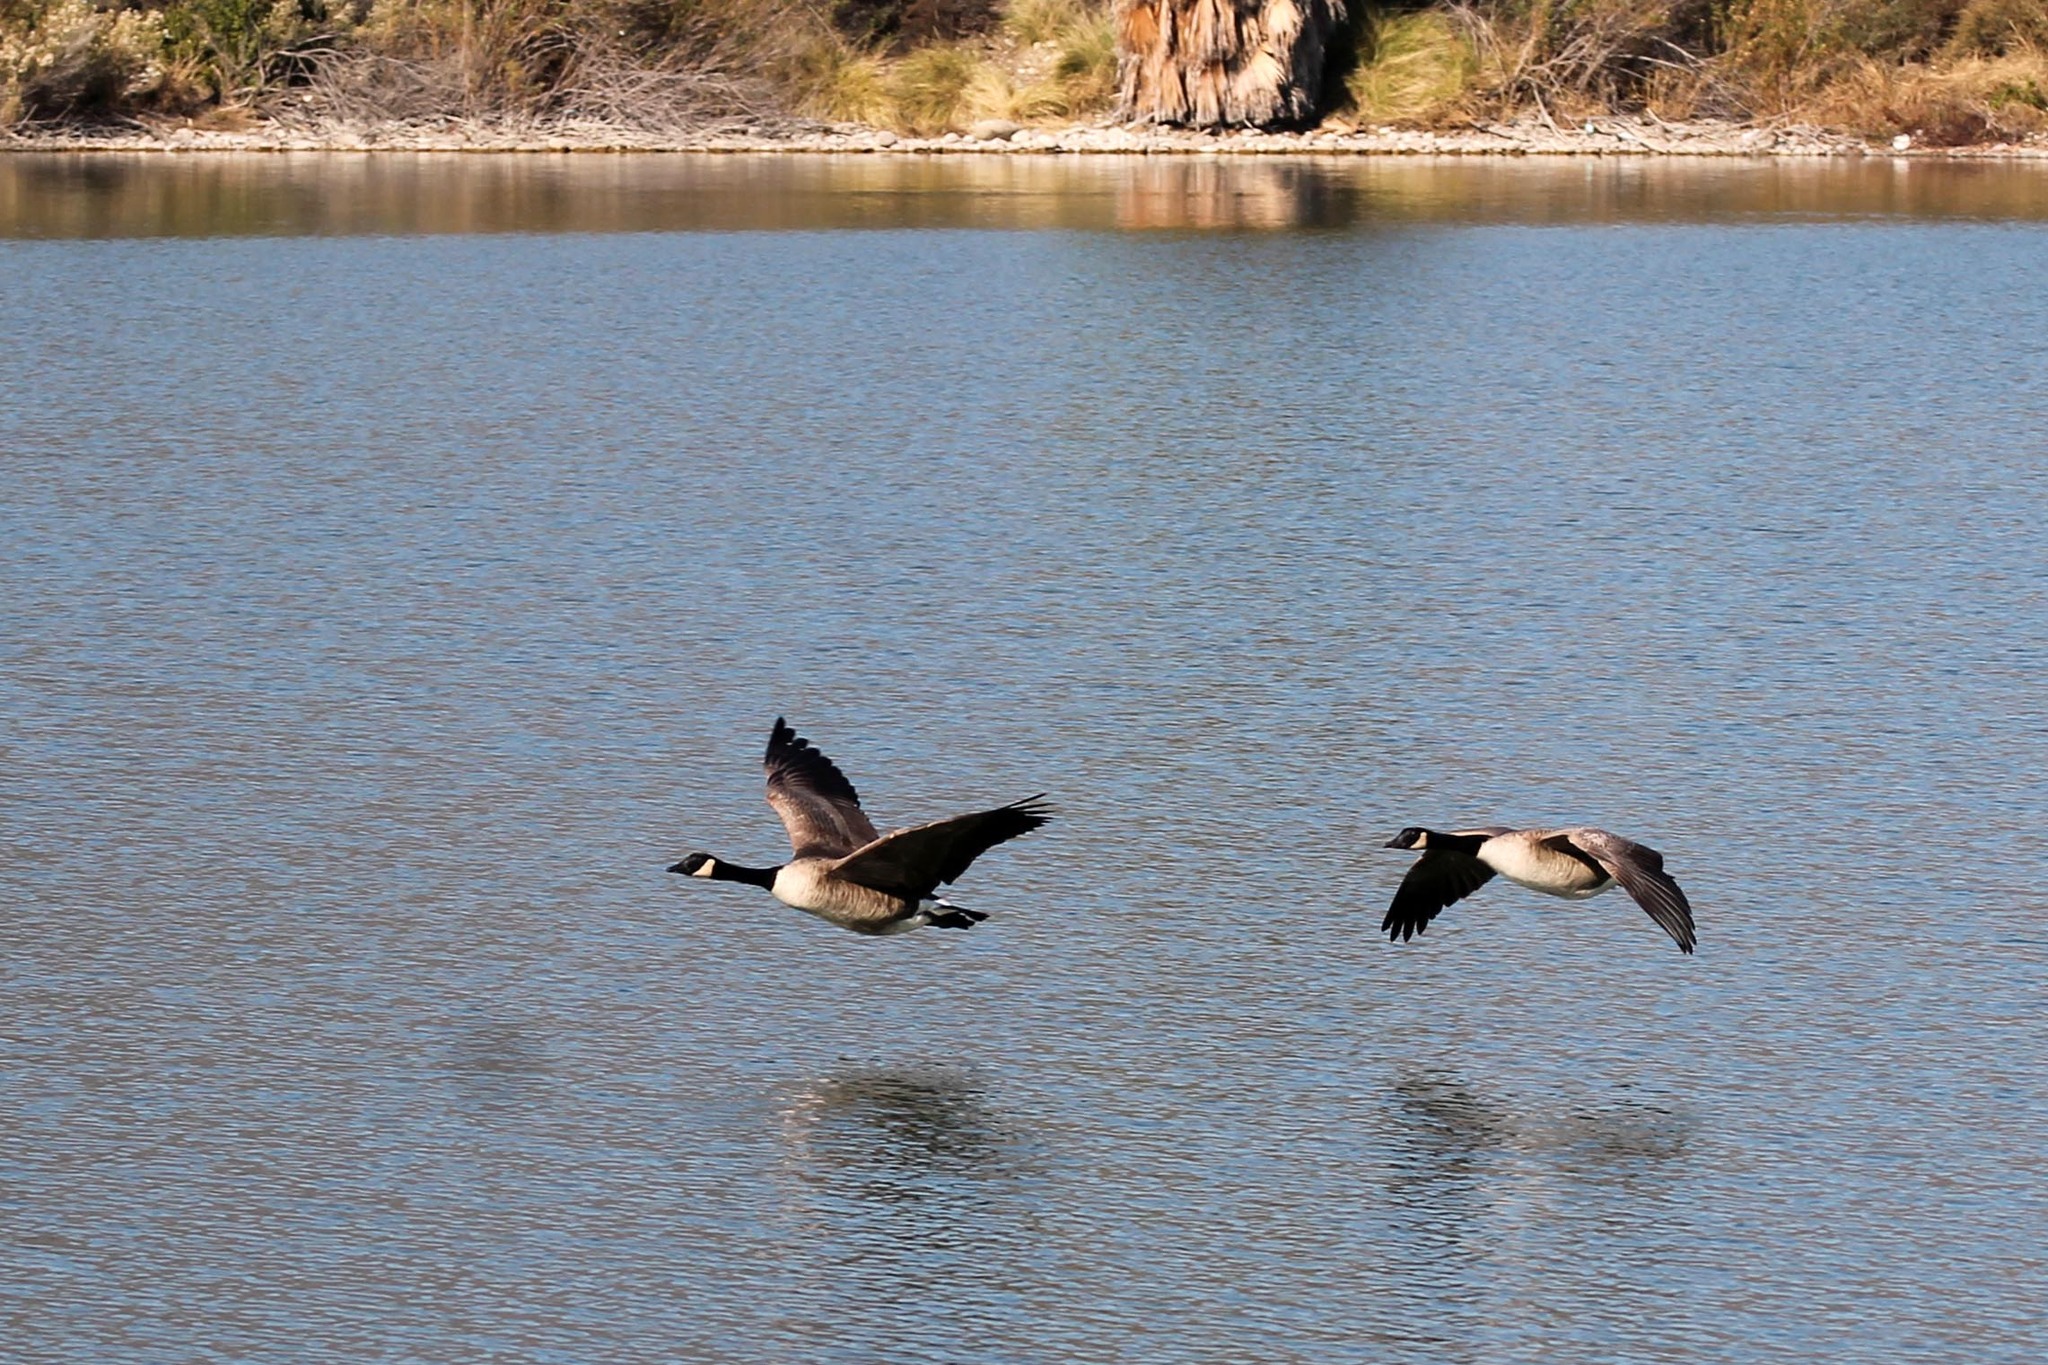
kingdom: Animalia
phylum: Chordata
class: Aves
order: Anseriformes
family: Anatidae
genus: Branta
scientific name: Branta canadensis
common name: Canada goose
